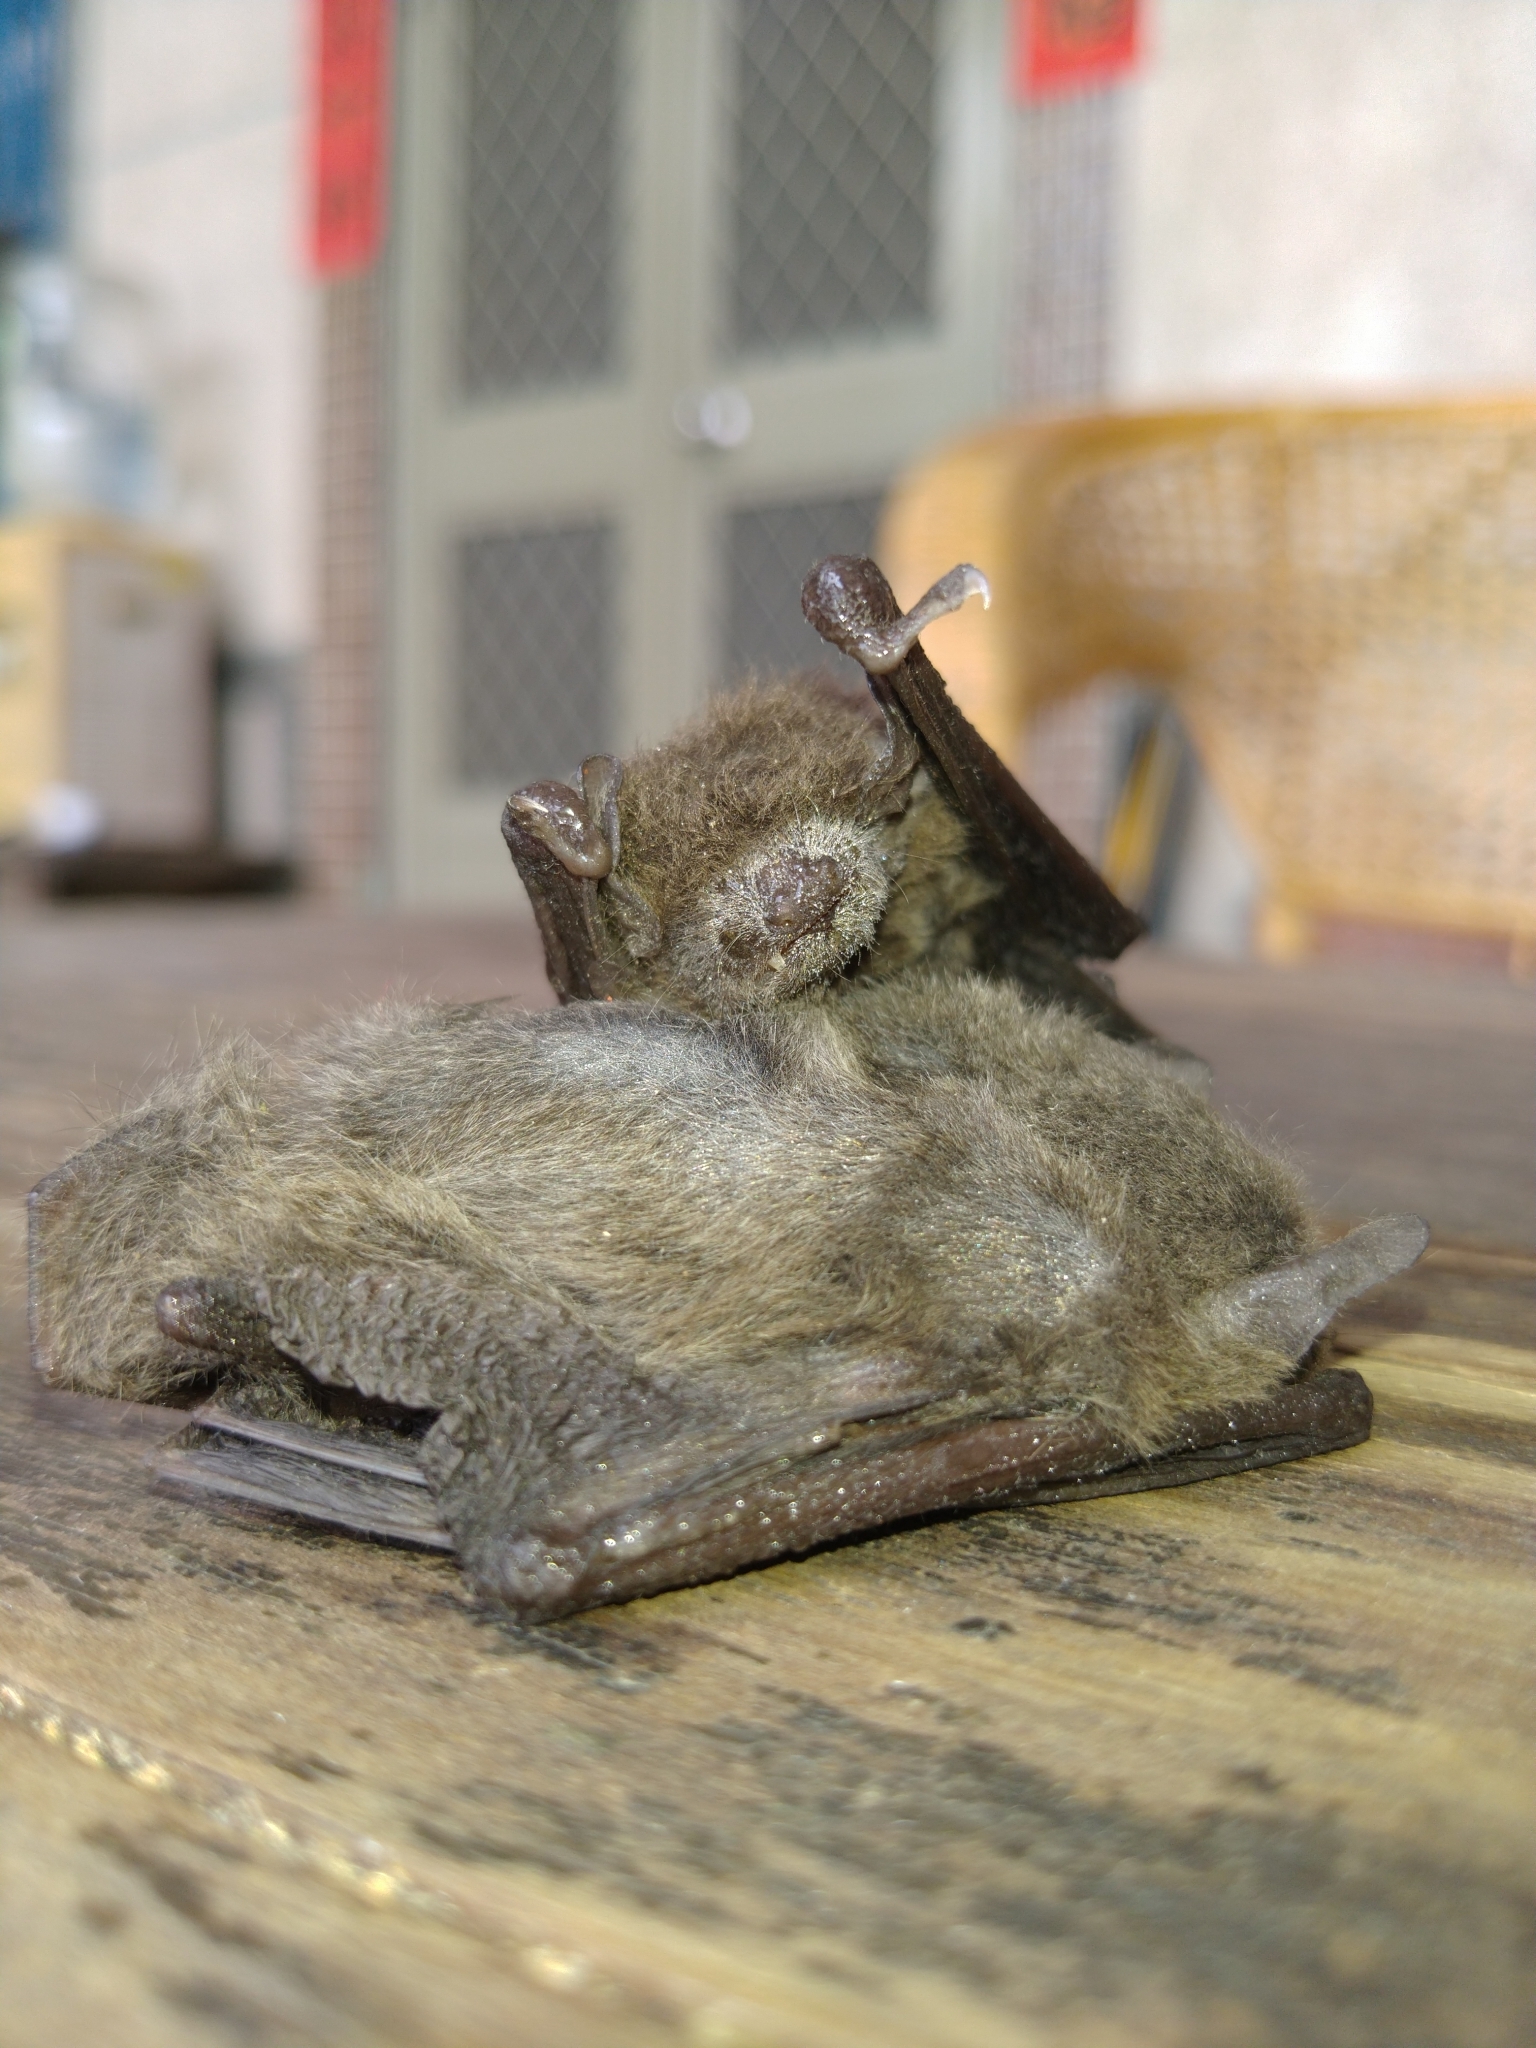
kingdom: Animalia
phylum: Chordata
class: Mammalia
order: Chiroptera
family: Vespertilionidae
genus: Pipistrellus
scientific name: Pipistrellus abramus
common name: Japanese pipistrelle
